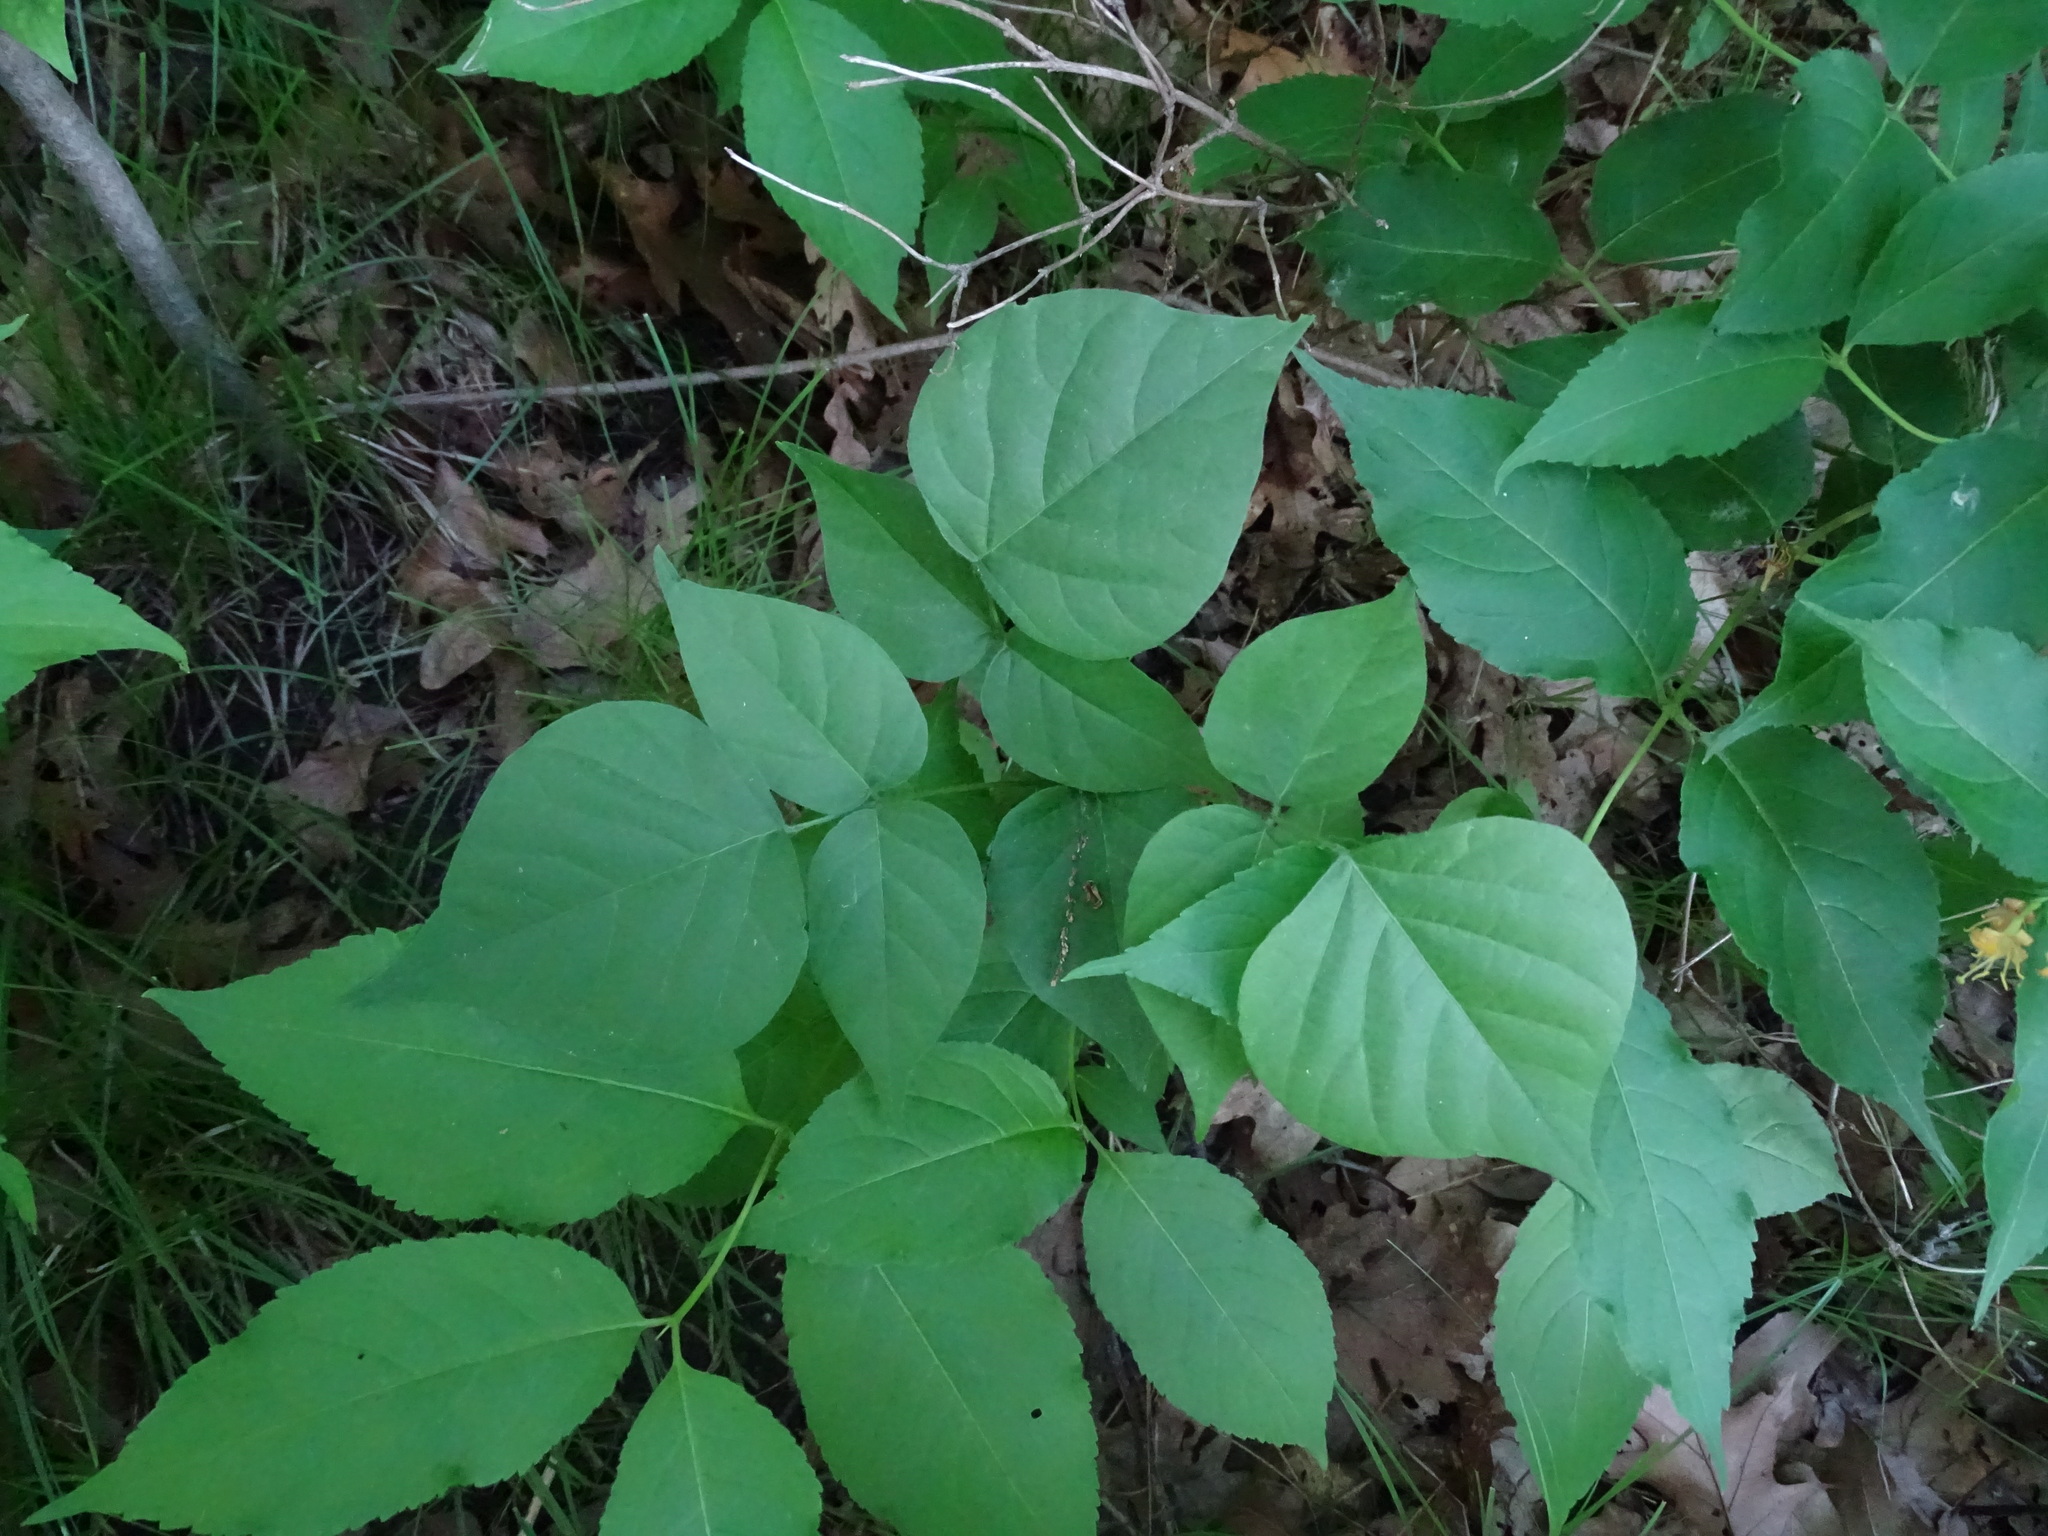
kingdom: Plantae
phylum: Tracheophyta
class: Magnoliopsida
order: Fabales
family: Fabaceae
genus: Hylodesmum
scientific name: Hylodesmum glutinosum
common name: Clustered-leaved tick-trefoil
